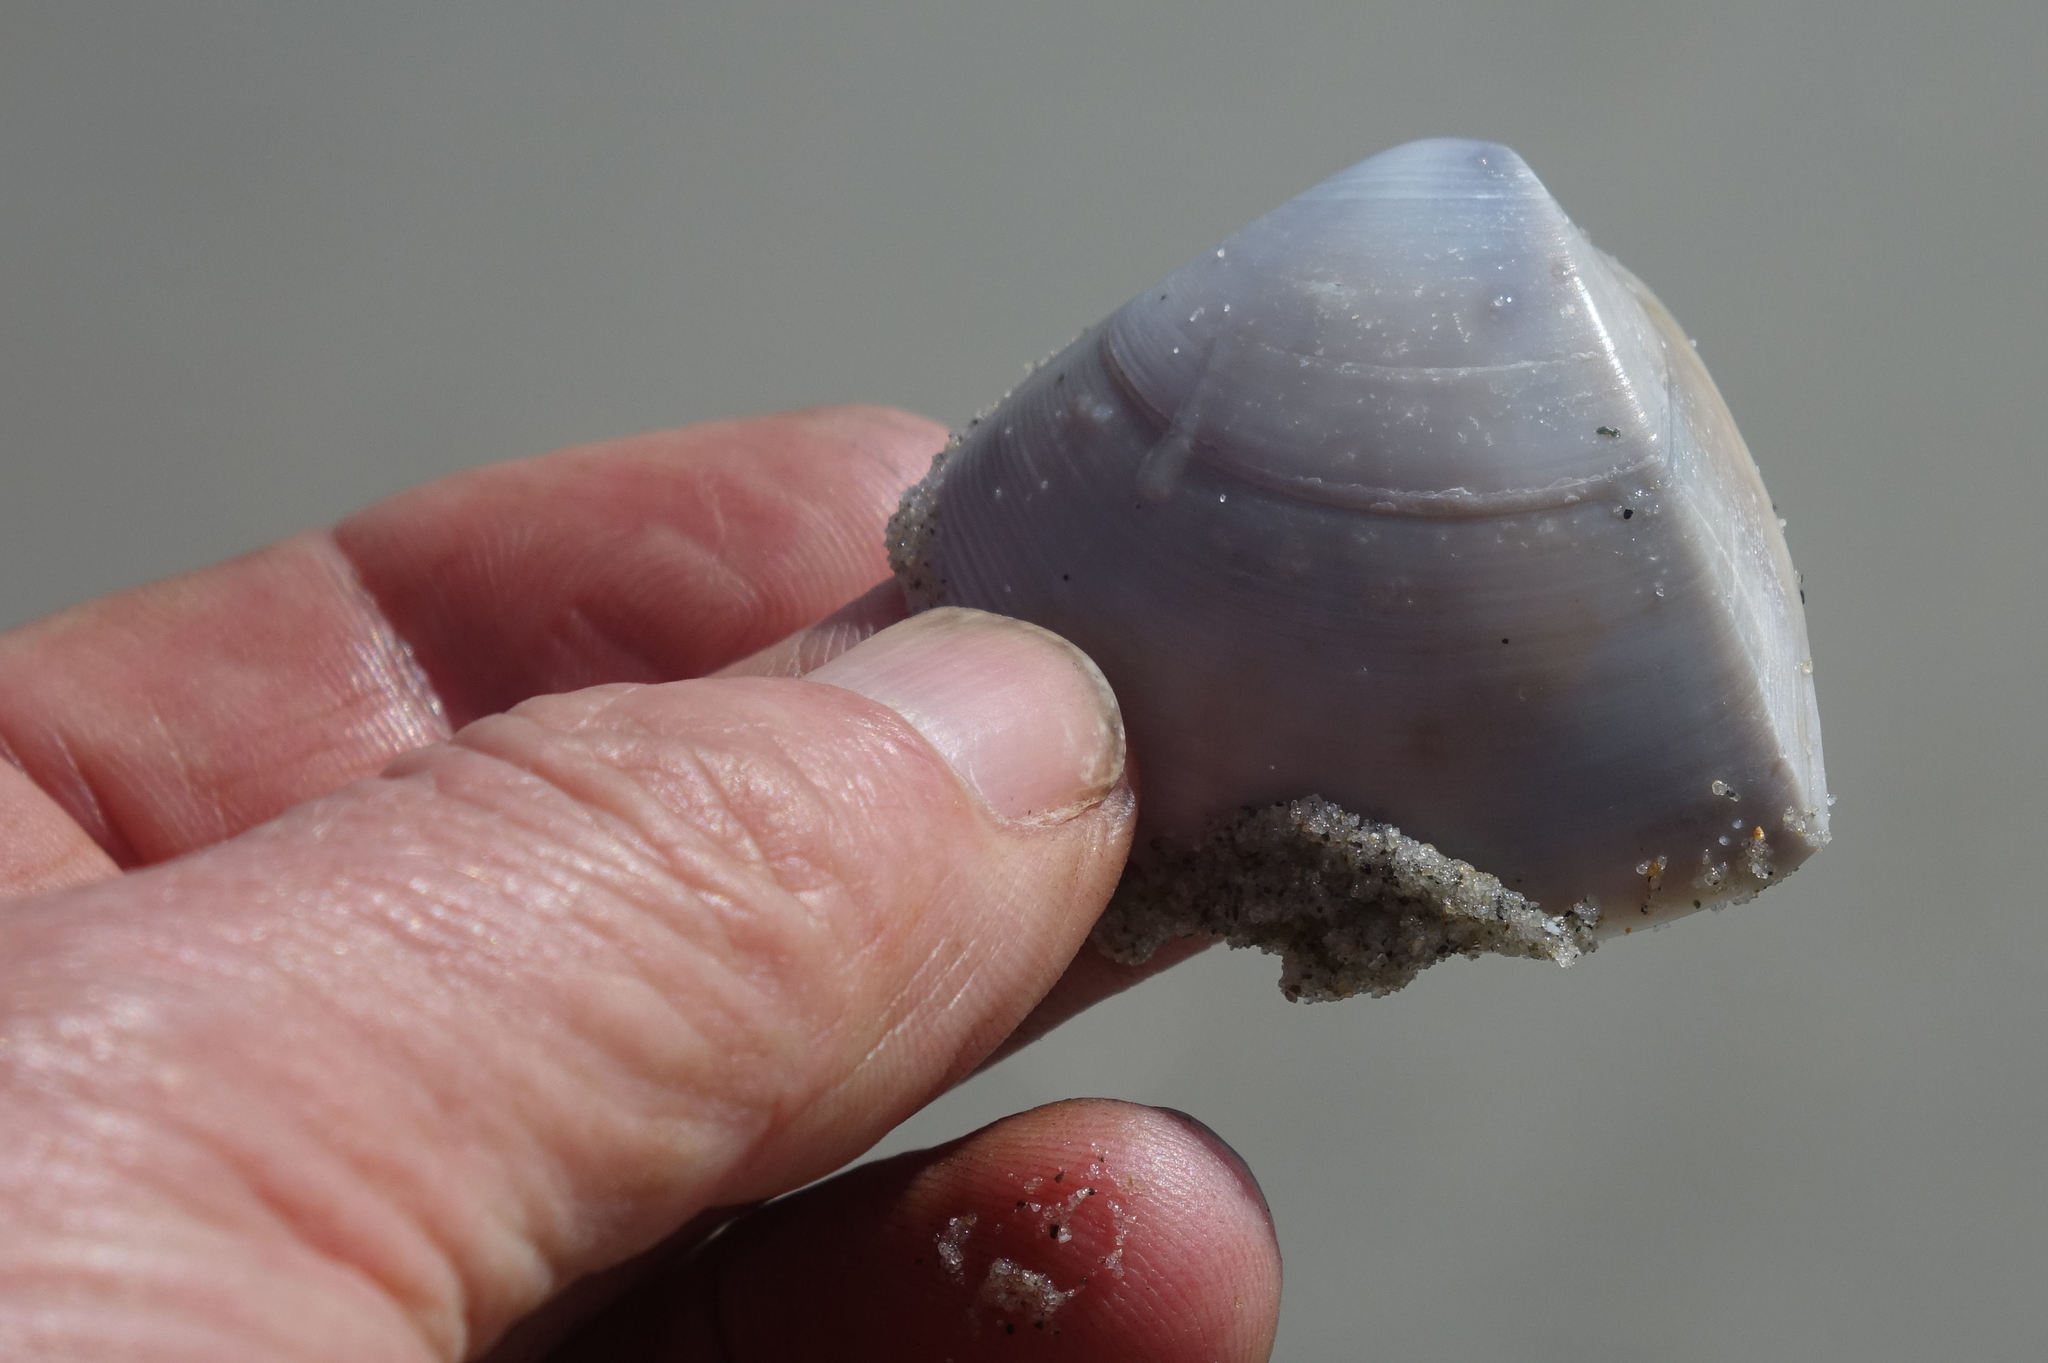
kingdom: Animalia
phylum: Mollusca
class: Bivalvia
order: Venerida
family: Mactridae
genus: Crassula
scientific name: Crassula aequilatera
